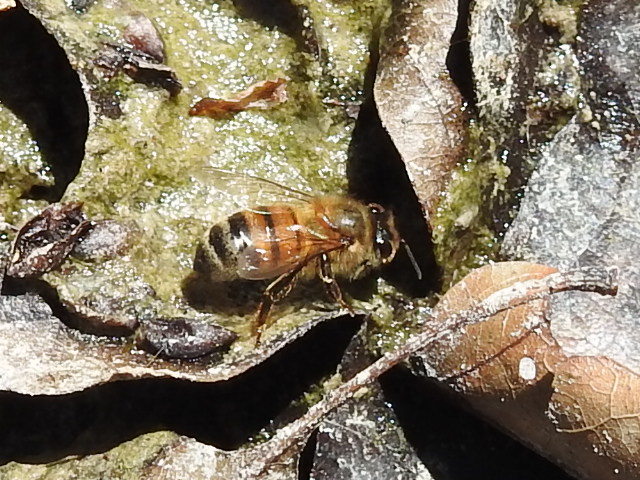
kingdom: Animalia
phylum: Arthropoda
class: Insecta
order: Hymenoptera
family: Apidae
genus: Apis
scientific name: Apis mellifera
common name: Honey bee
